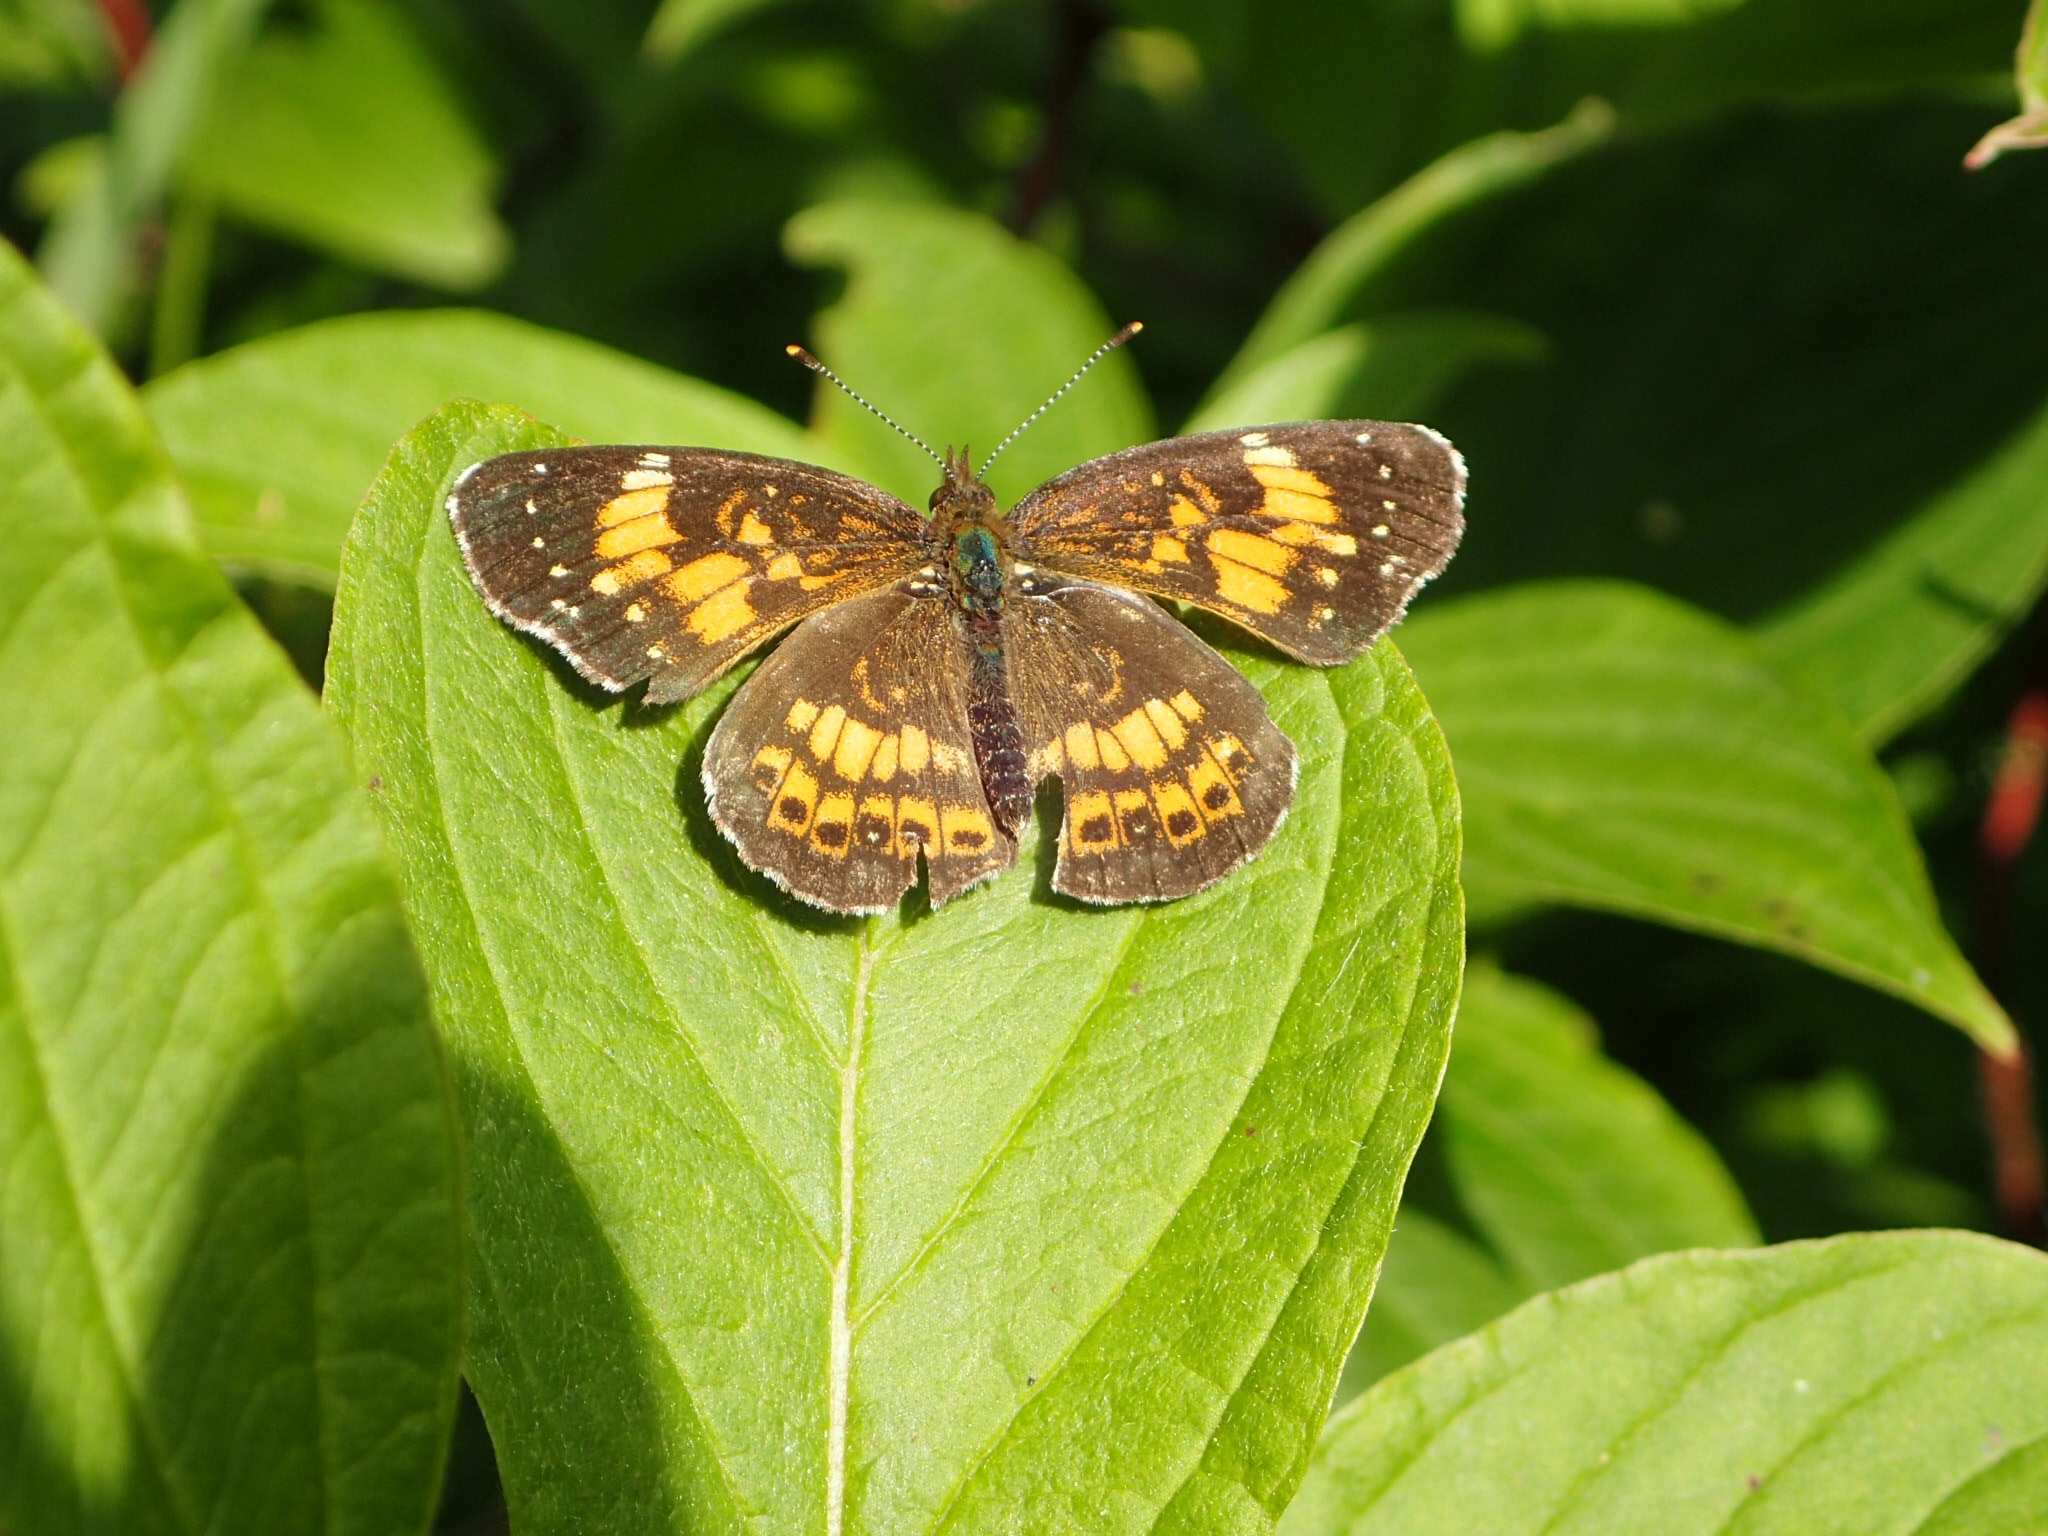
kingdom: Animalia
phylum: Arthropoda
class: Insecta
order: Lepidoptera
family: Nymphalidae
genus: Chlosyne
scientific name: Chlosyne nycteis
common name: Silvery checkerspot
